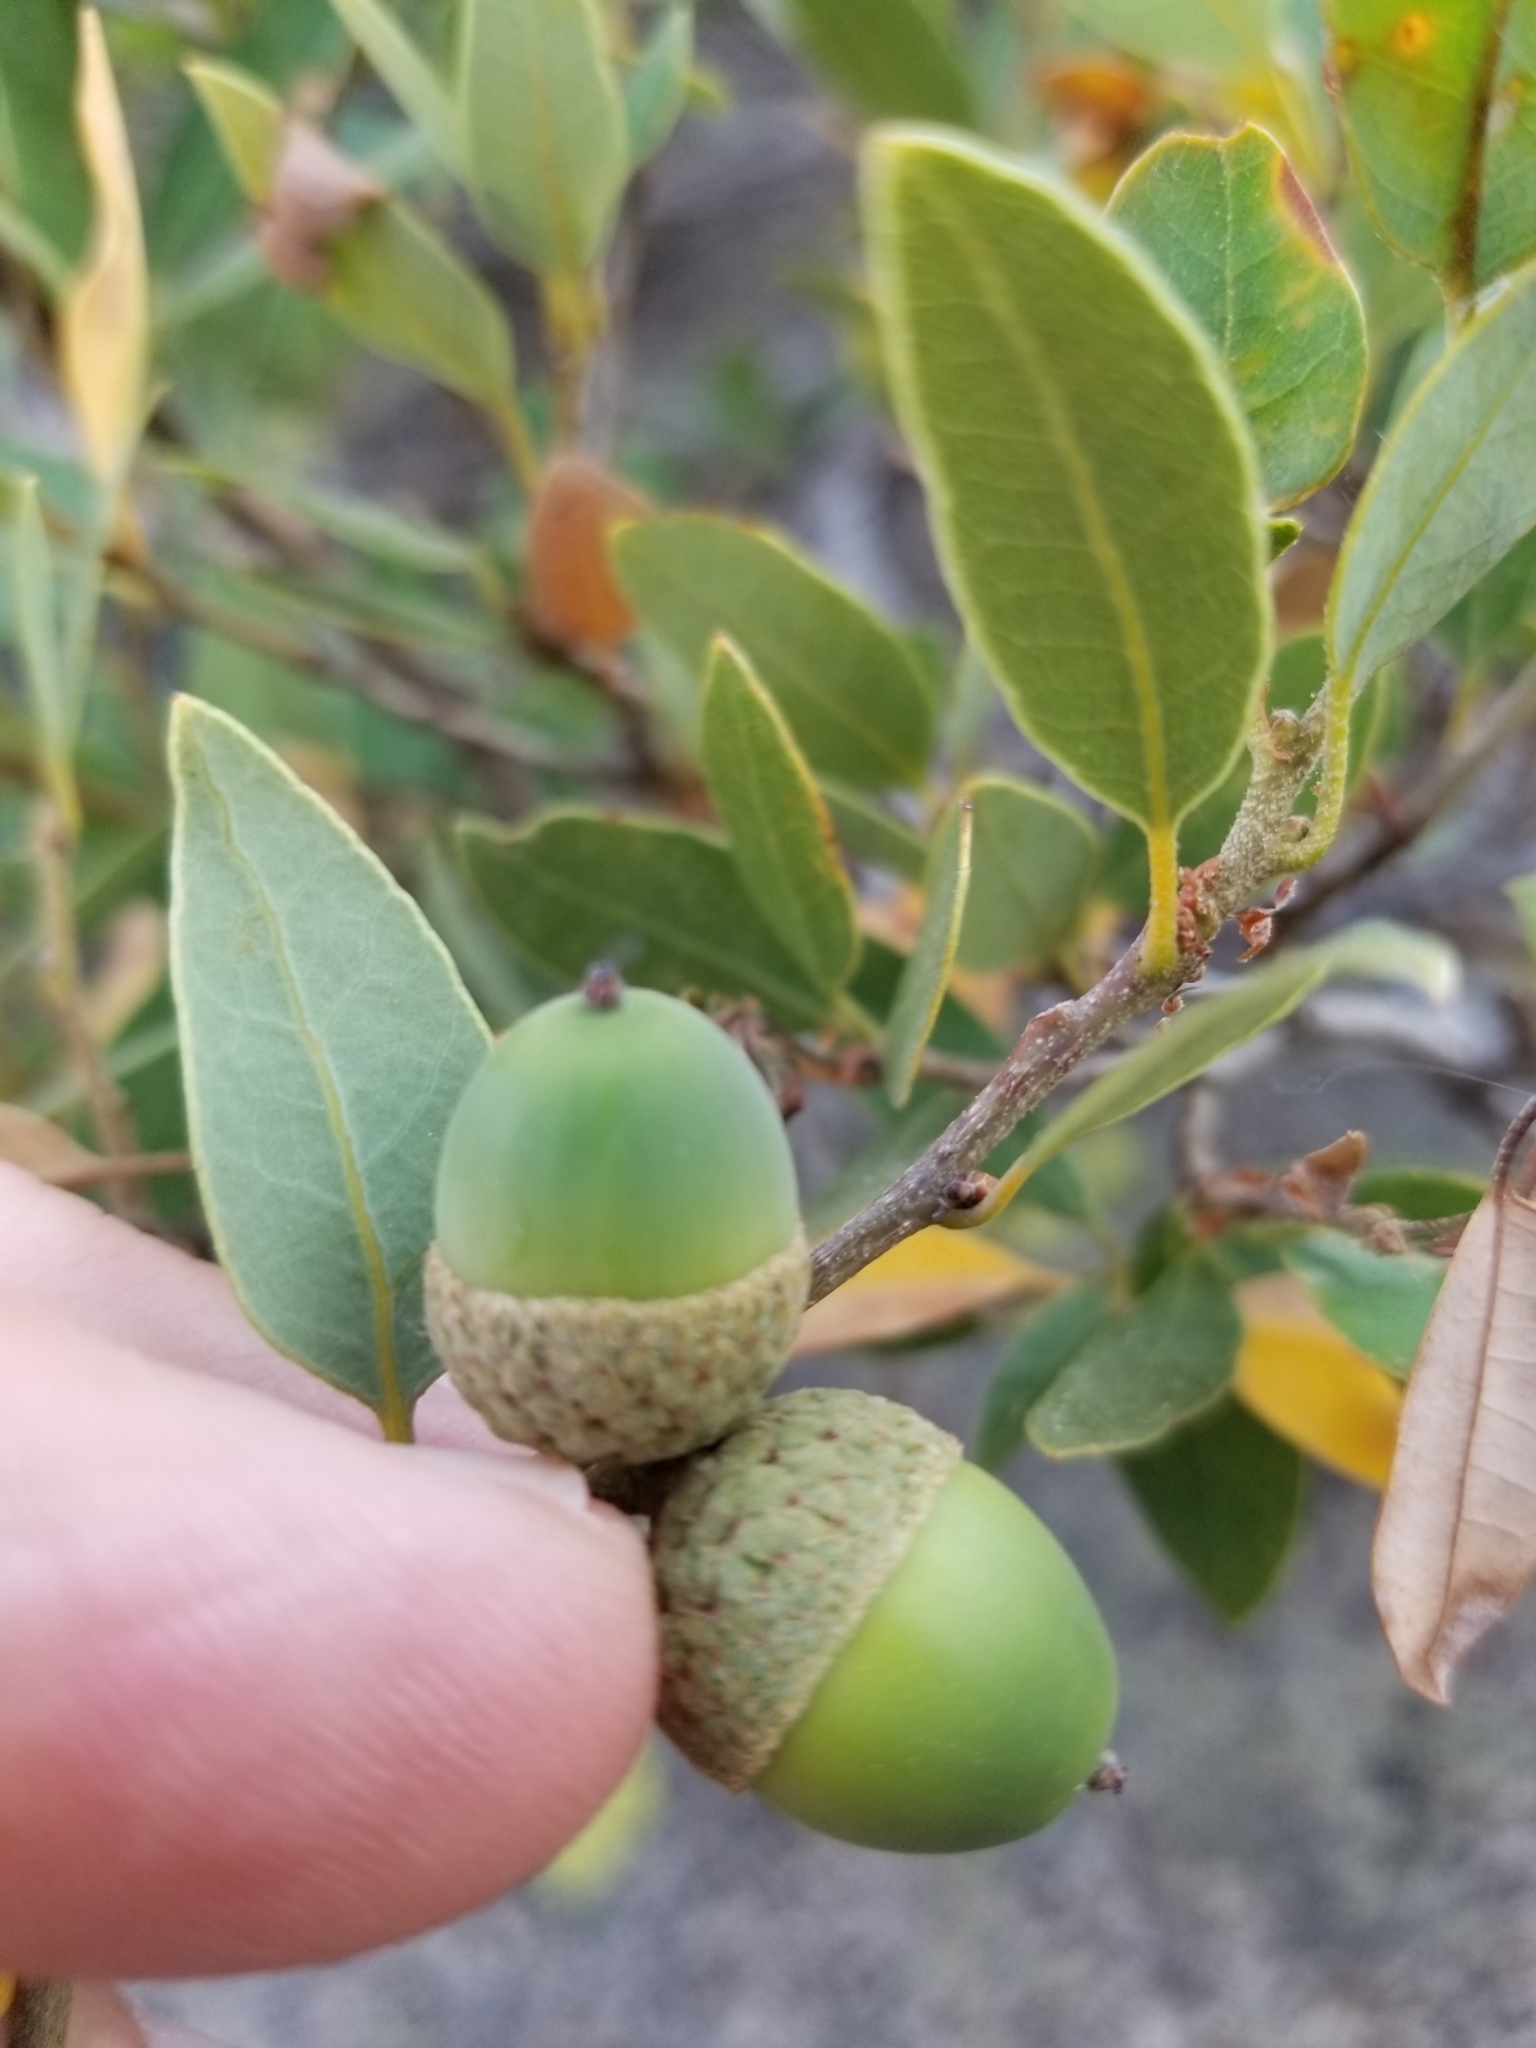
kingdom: Plantae
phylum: Tracheophyta
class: Magnoliopsida
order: Fagales
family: Fagaceae
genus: Quercus
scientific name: Quercus vacciniifolia
